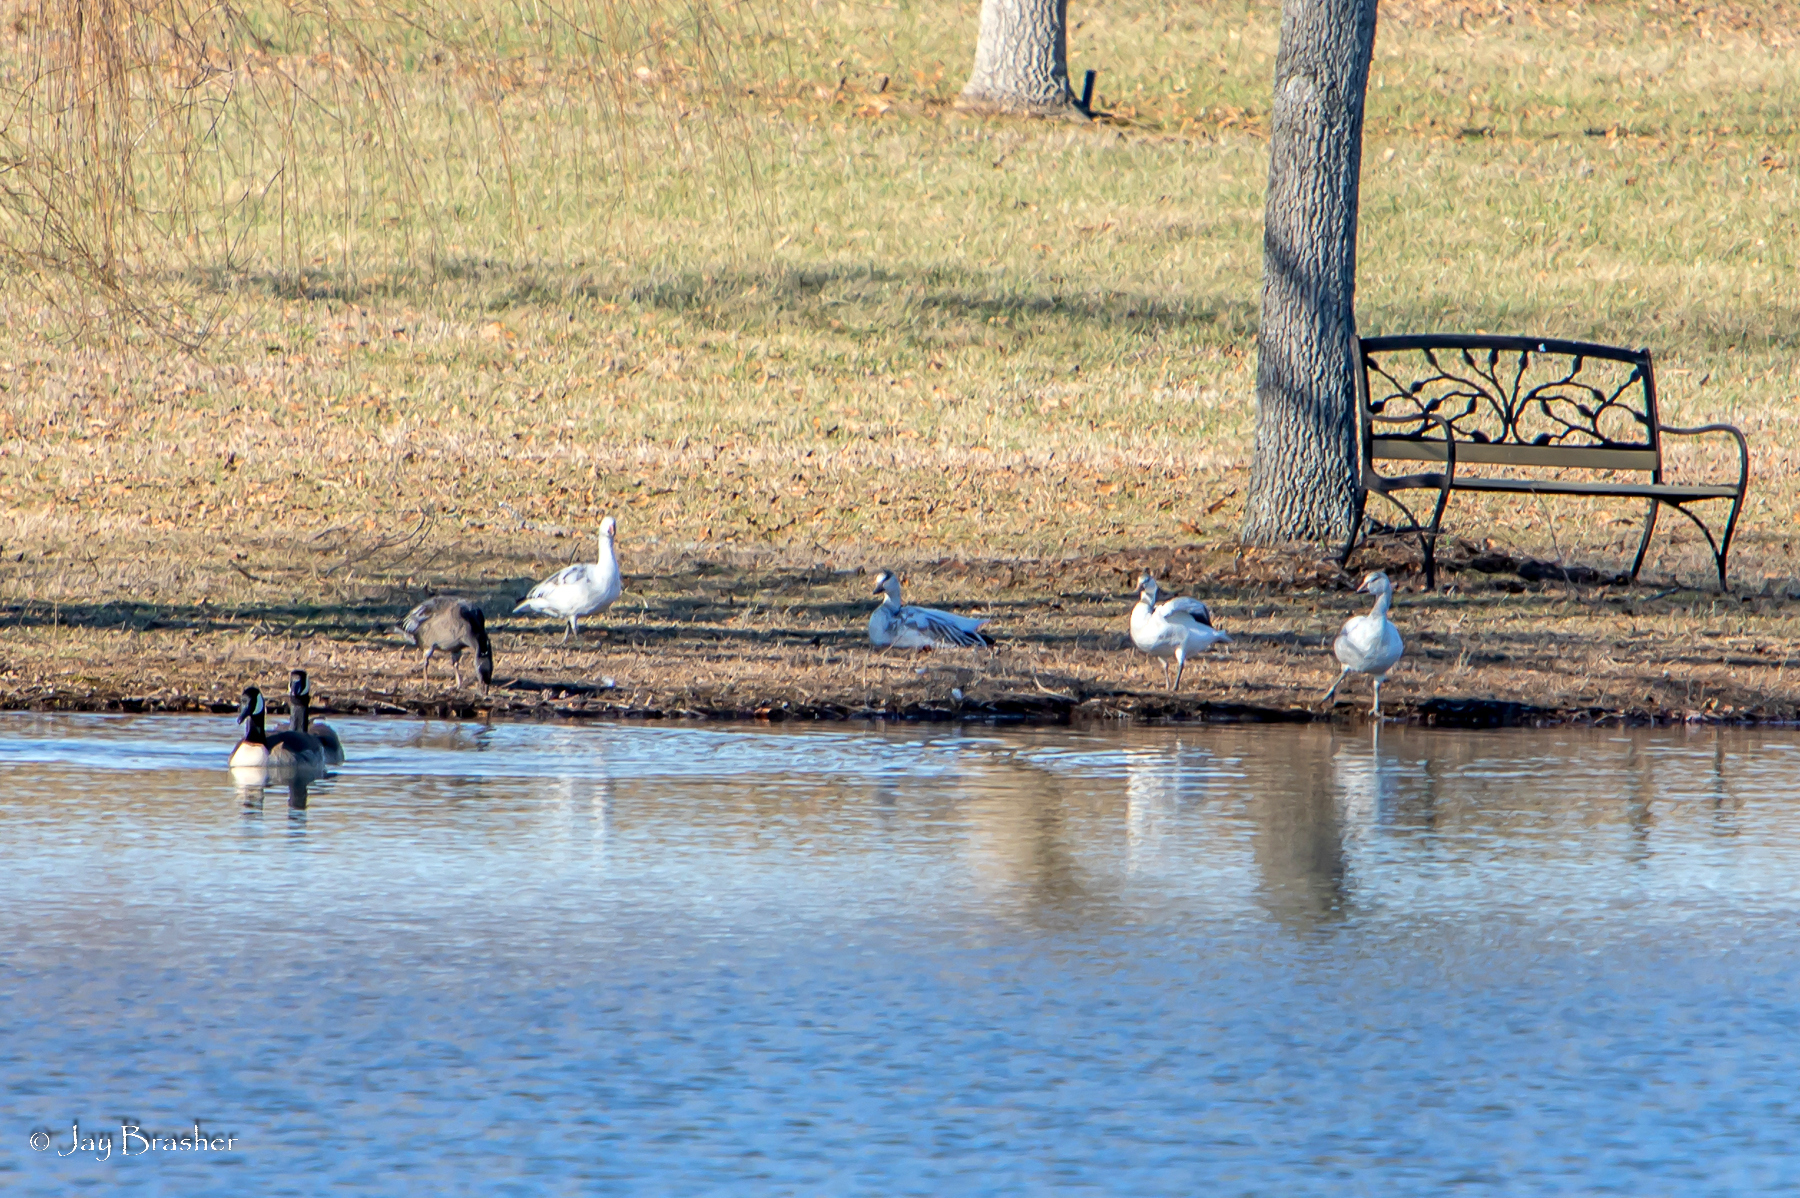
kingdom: Animalia
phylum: Chordata
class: Aves
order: Anseriformes
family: Anatidae
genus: Anser
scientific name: Anser caerulescens
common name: Snow goose
